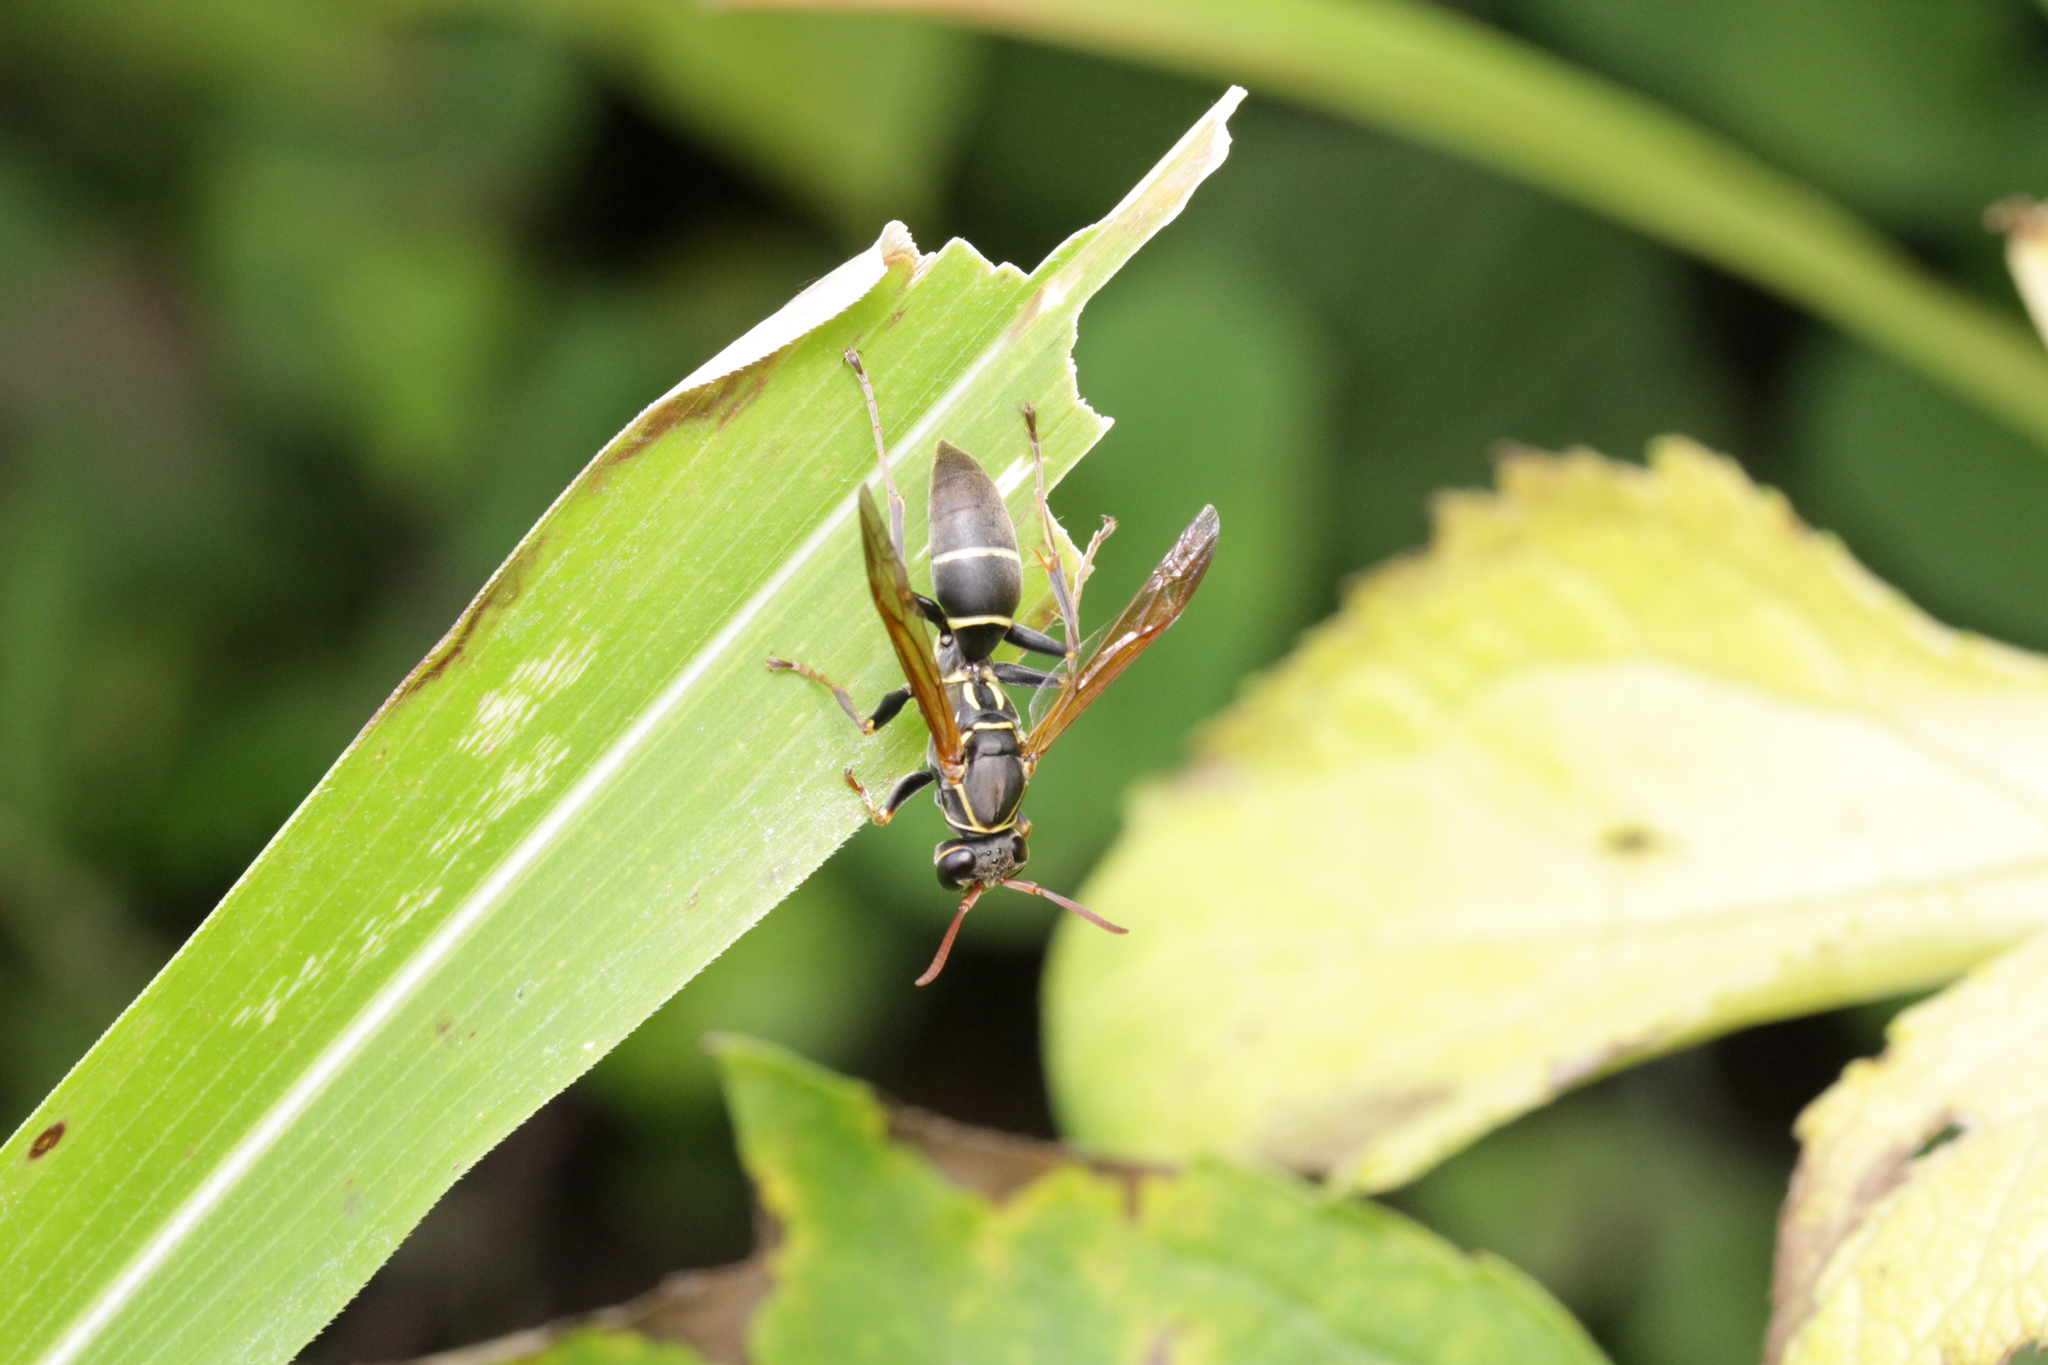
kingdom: Animalia
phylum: Arthropoda
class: Insecta
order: Hymenoptera
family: Eumenidae
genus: Polistes
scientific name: Polistes pacificus
